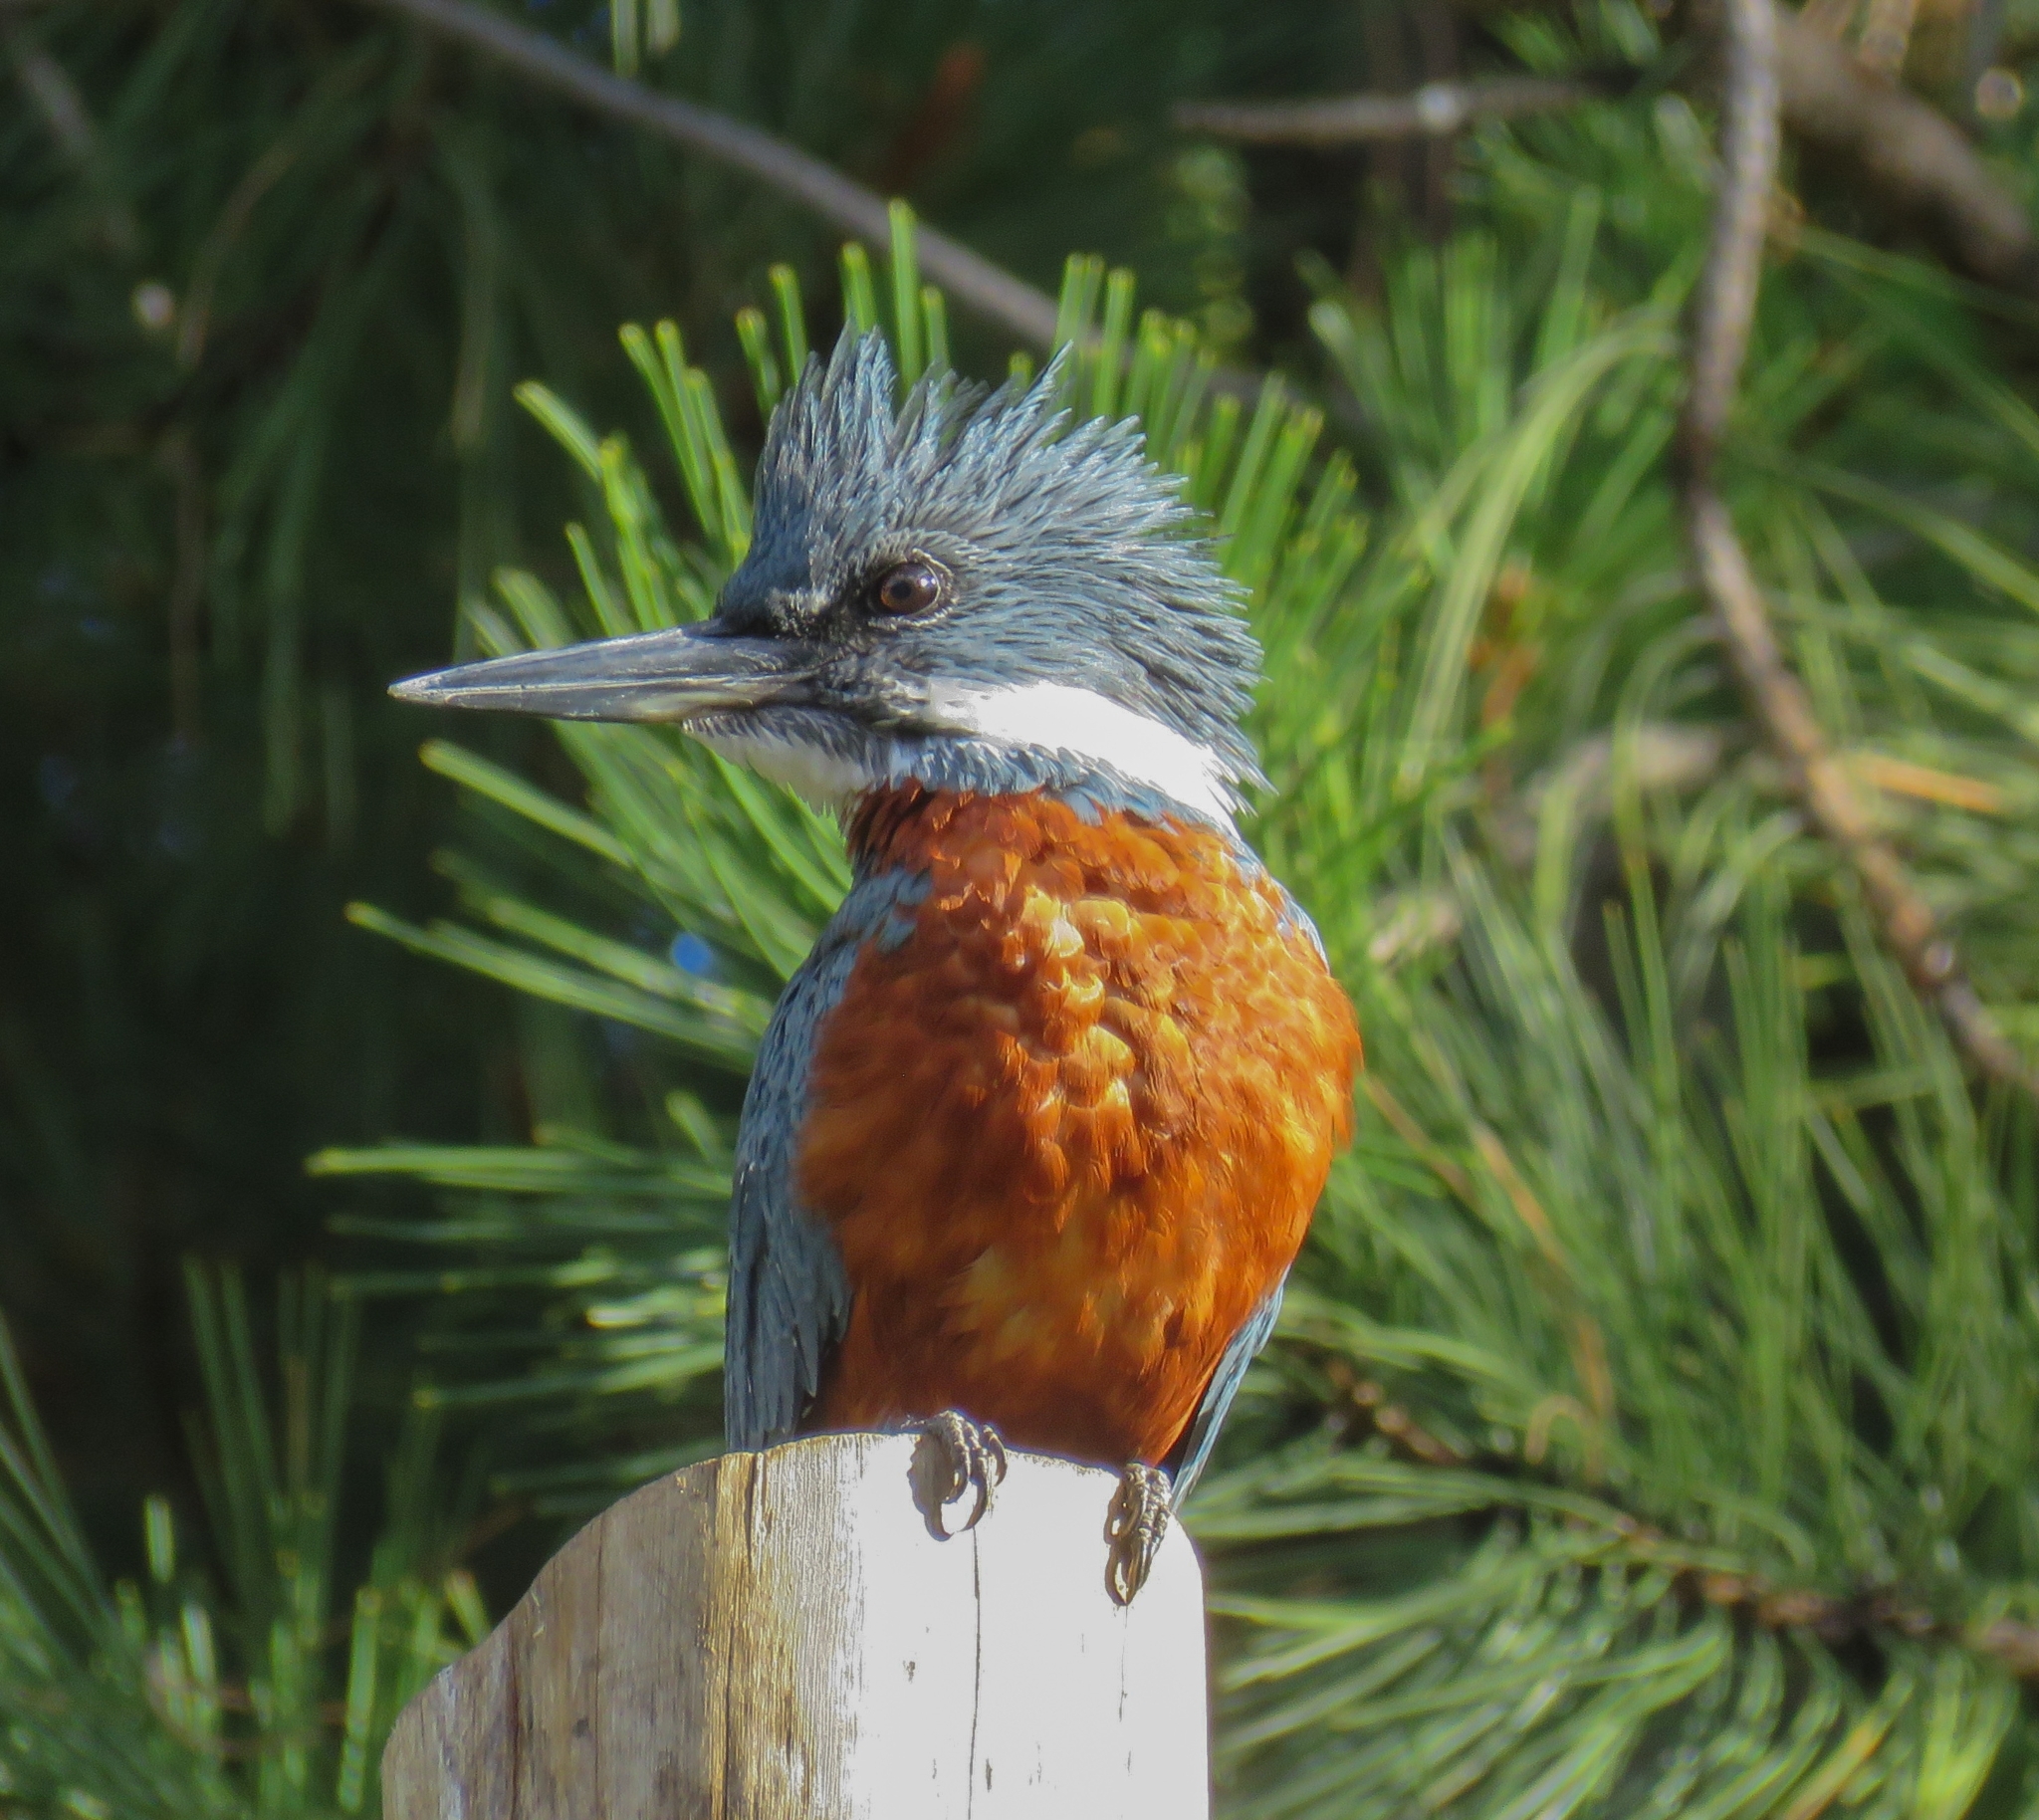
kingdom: Animalia
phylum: Chordata
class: Aves
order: Coraciiformes
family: Alcedinidae
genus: Megaceryle
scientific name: Megaceryle torquata
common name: Ringed kingfisher
